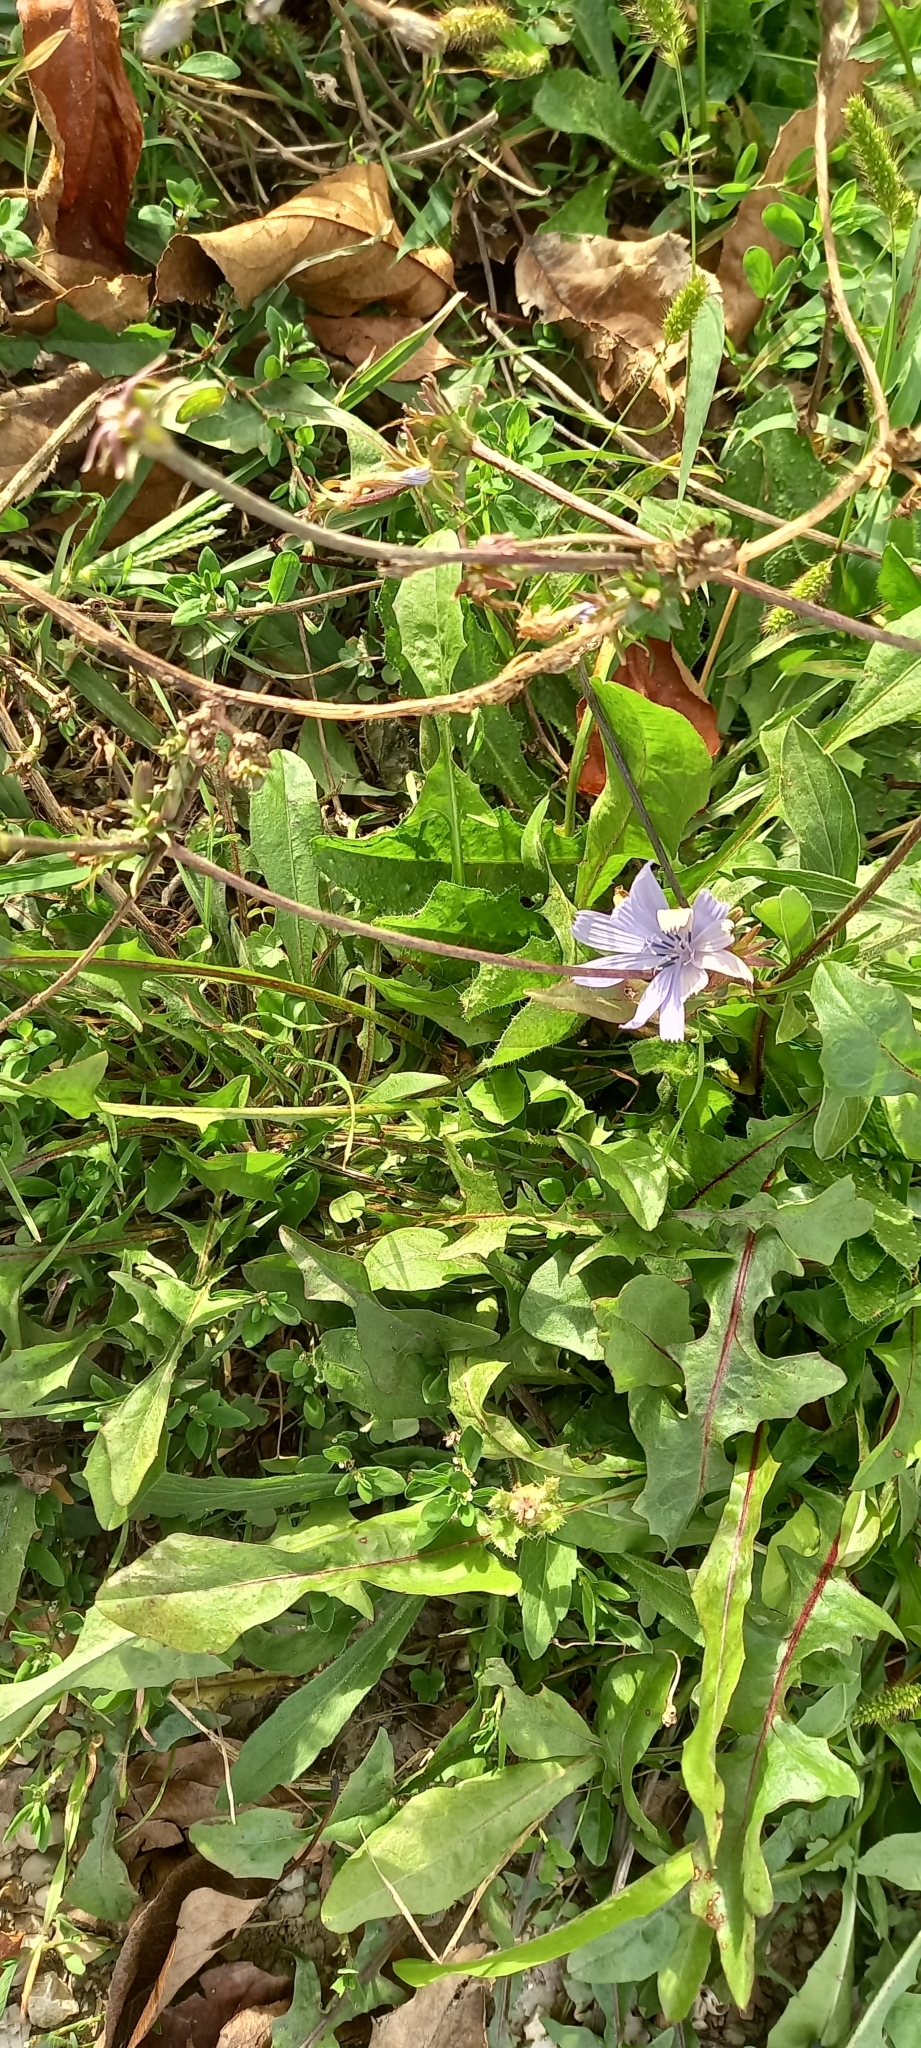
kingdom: Plantae
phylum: Tracheophyta
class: Magnoliopsida
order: Asterales
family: Asteraceae
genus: Cichorium
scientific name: Cichorium intybus
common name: Chicory
